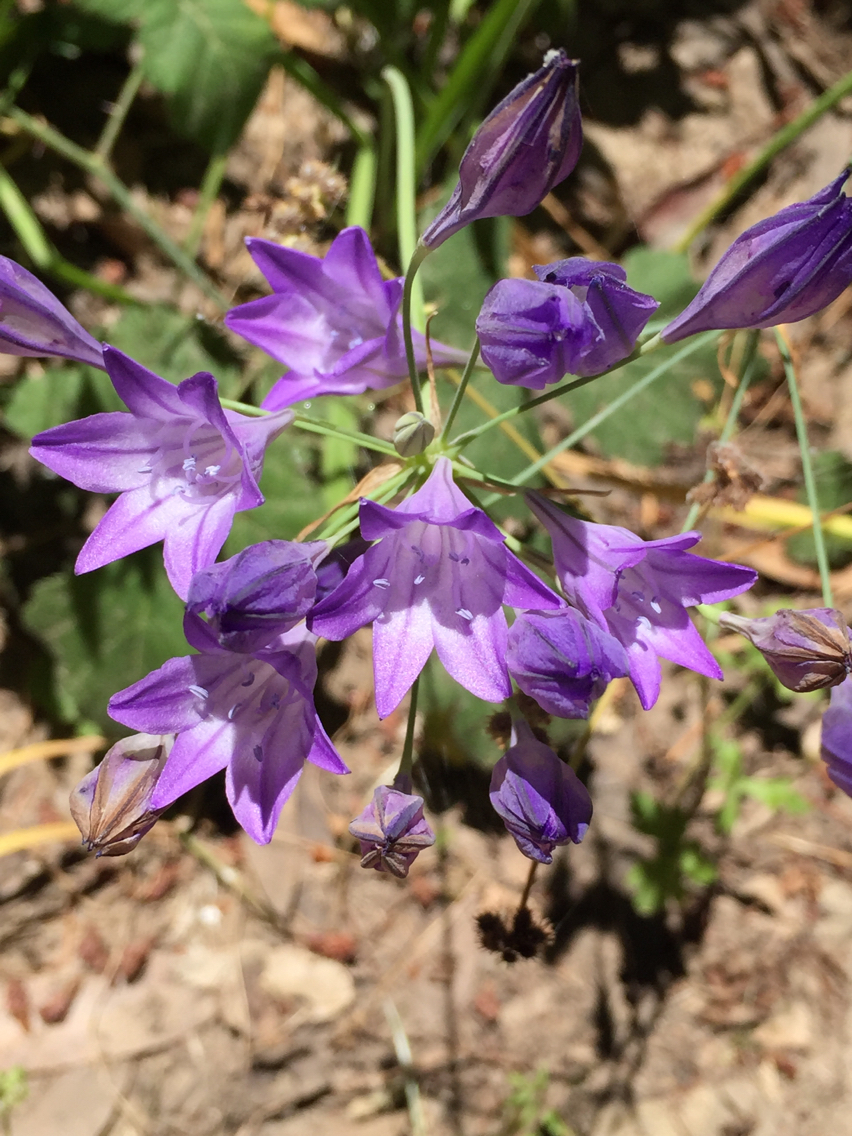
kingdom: Plantae
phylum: Tracheophyta
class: Liliopsida
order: Asparagales
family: Asparagaceae
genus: Triteleia
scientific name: Triteleia laxa
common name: Triplet-lily
